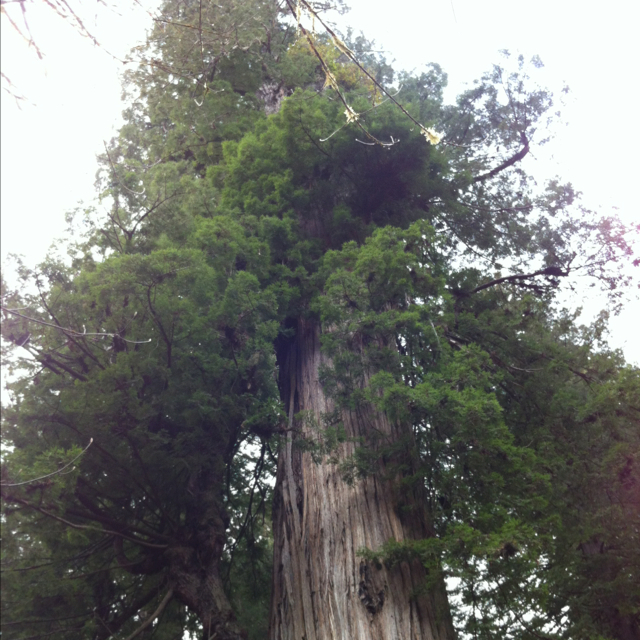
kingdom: Plantae
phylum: Tracheophyta
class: Pinopsida
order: Pinales
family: Cupressaceae
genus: Sequoia
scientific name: Sequoia sempervirens
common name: Coast redwood
